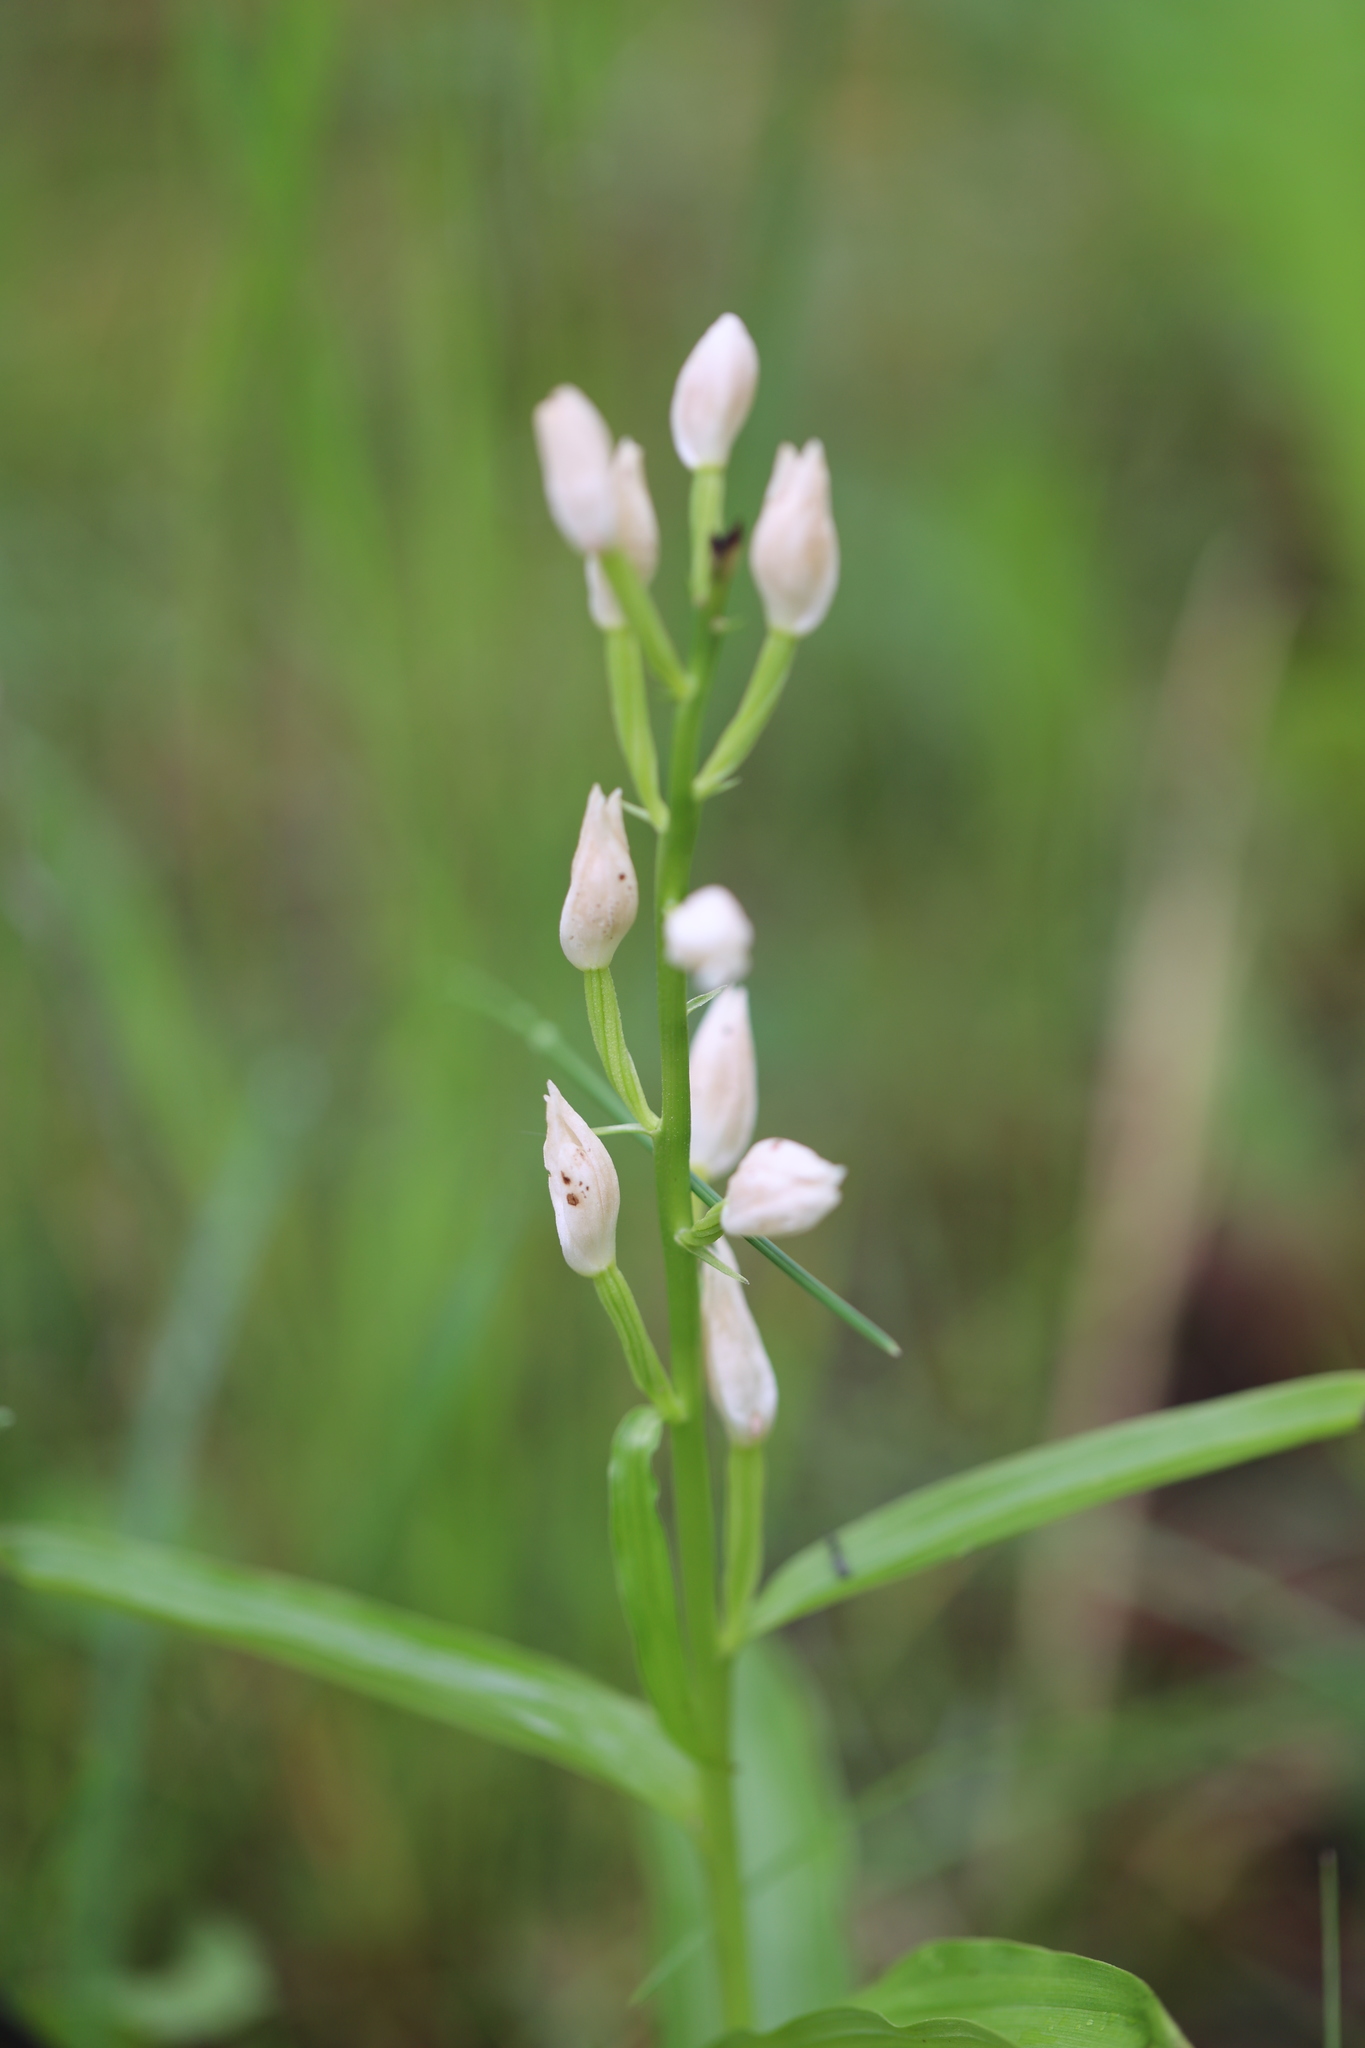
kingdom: Plantae
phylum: Tracheophyta
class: Liliopsida
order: Asparagales
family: Orchidaceae
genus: Cephalanthera
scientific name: Cephalanthera damasonium
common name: White helleborine
